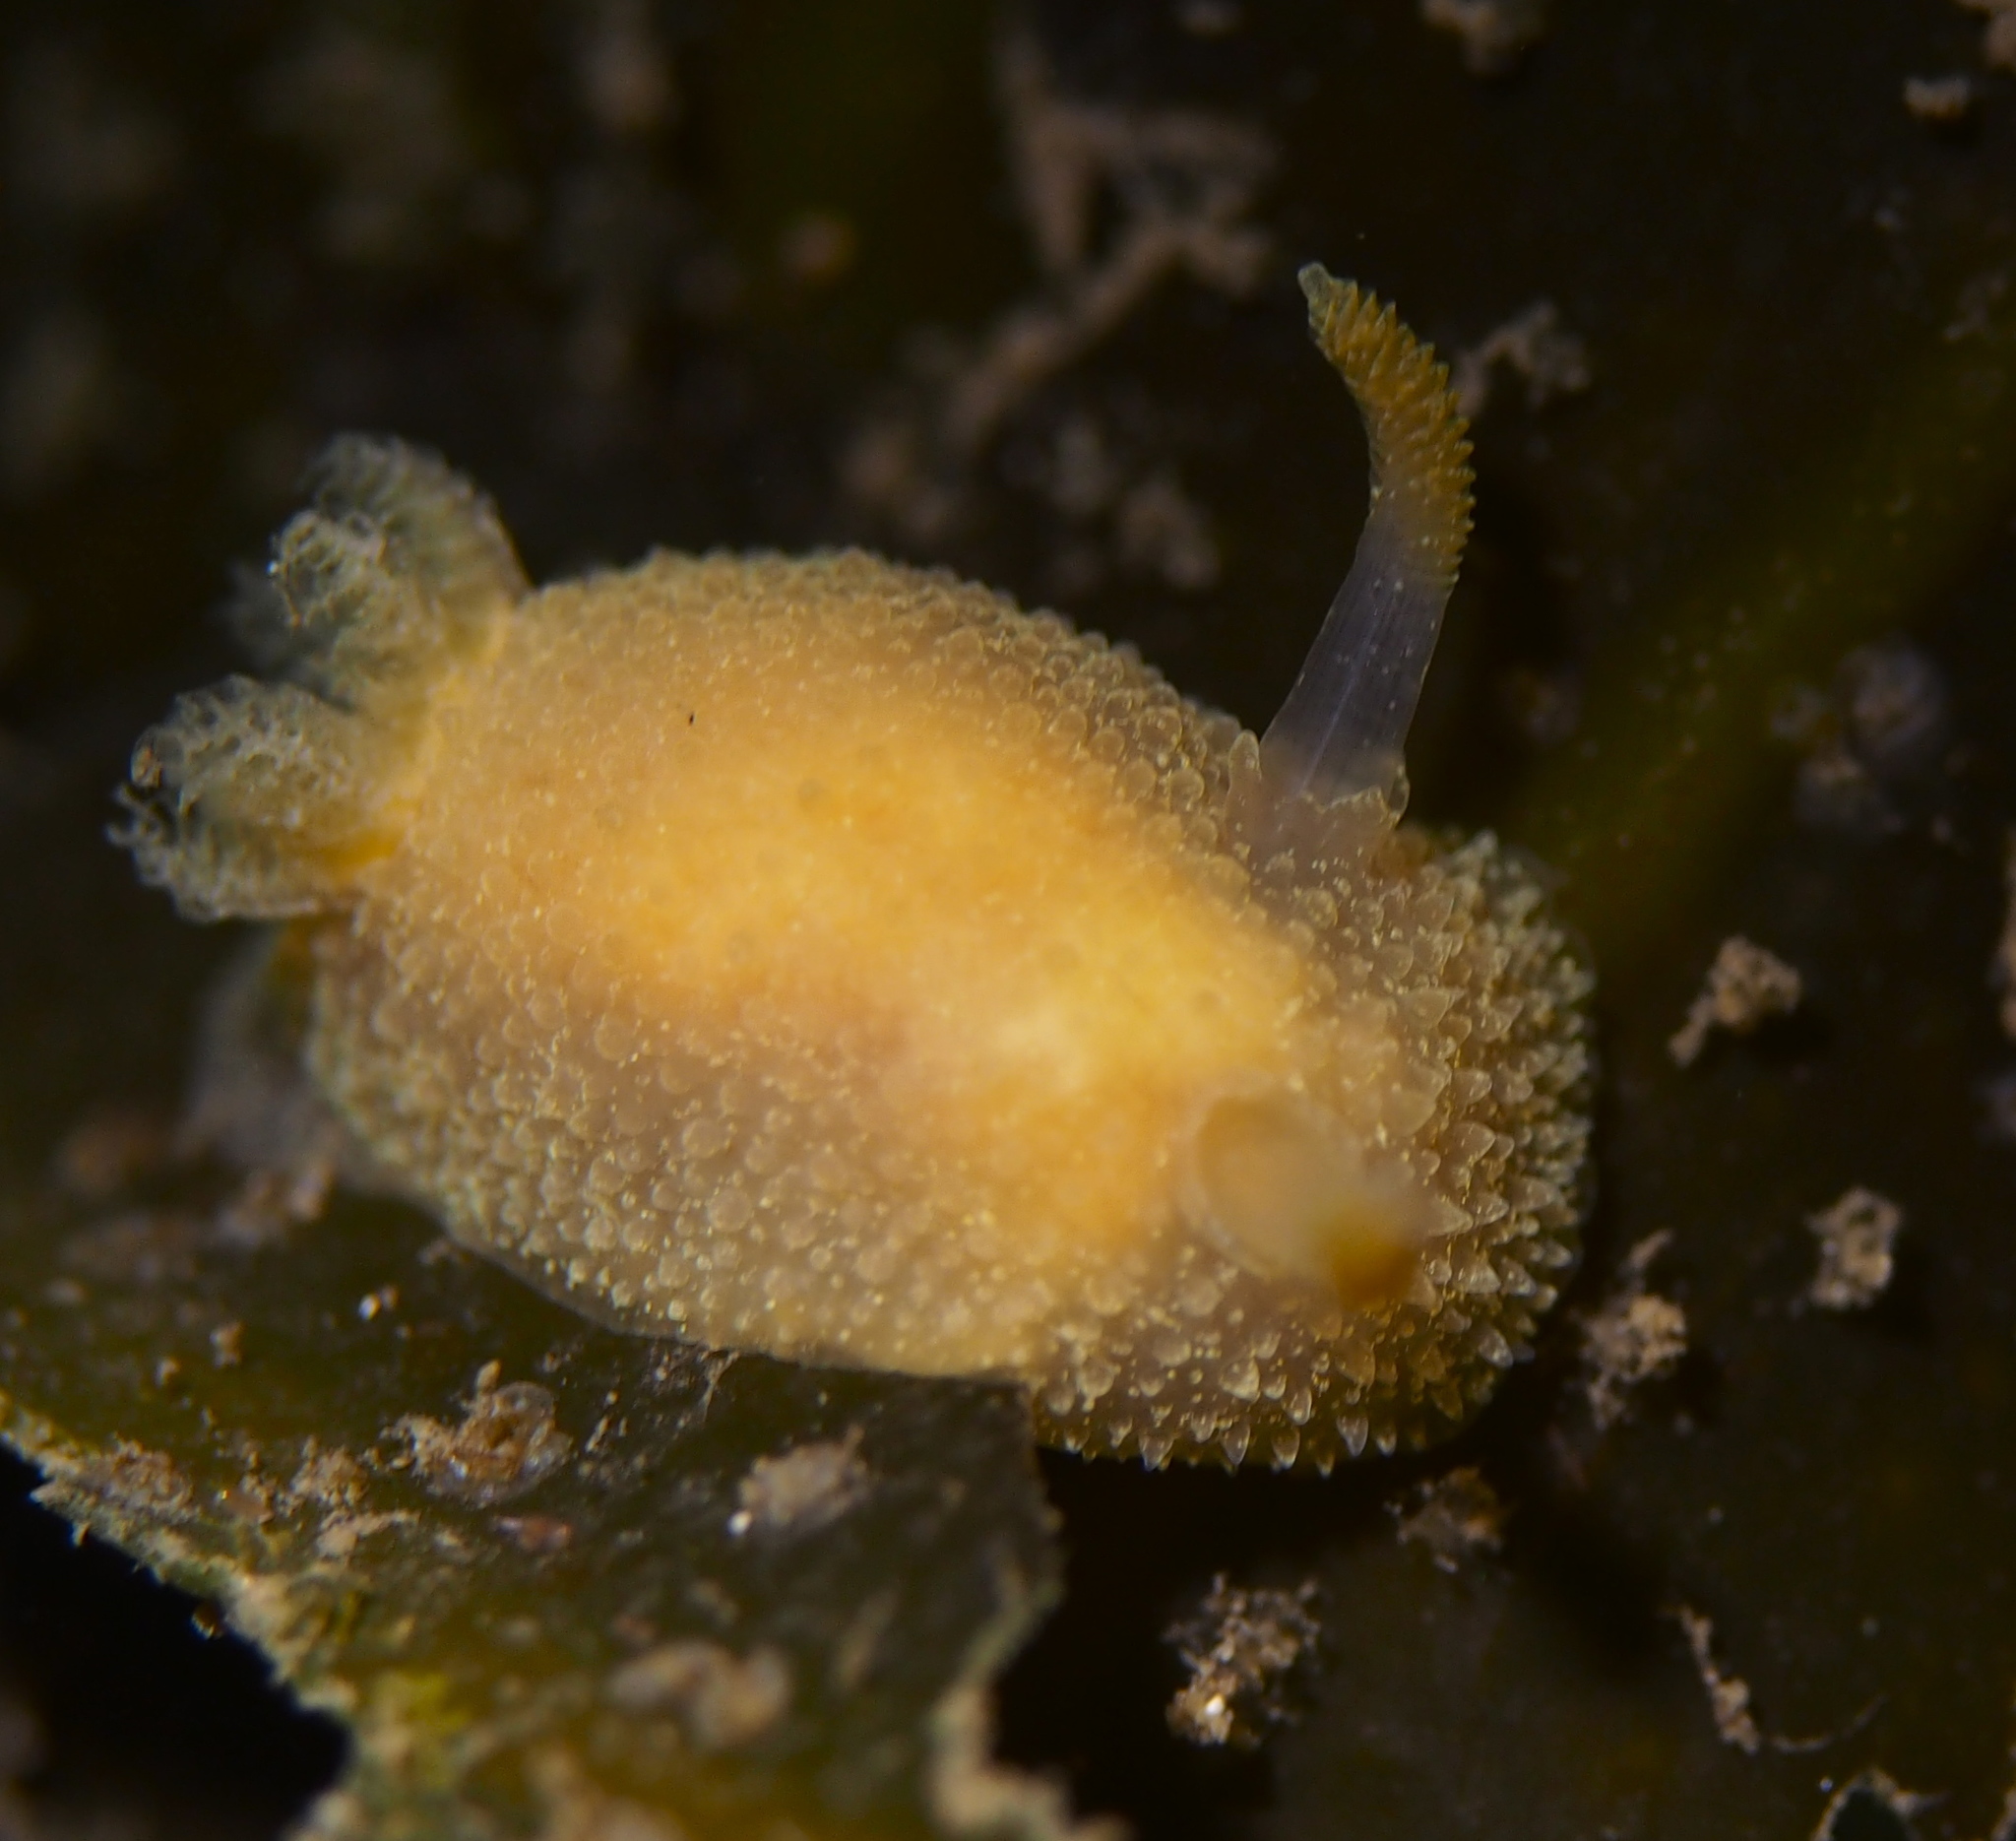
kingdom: Animalia
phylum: Mollusca
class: Gastropoda
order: Nudibranchia
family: Onchidorididae
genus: Acanthodoris
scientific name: Acanthodoris pilosa
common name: Hairy spiny doris
